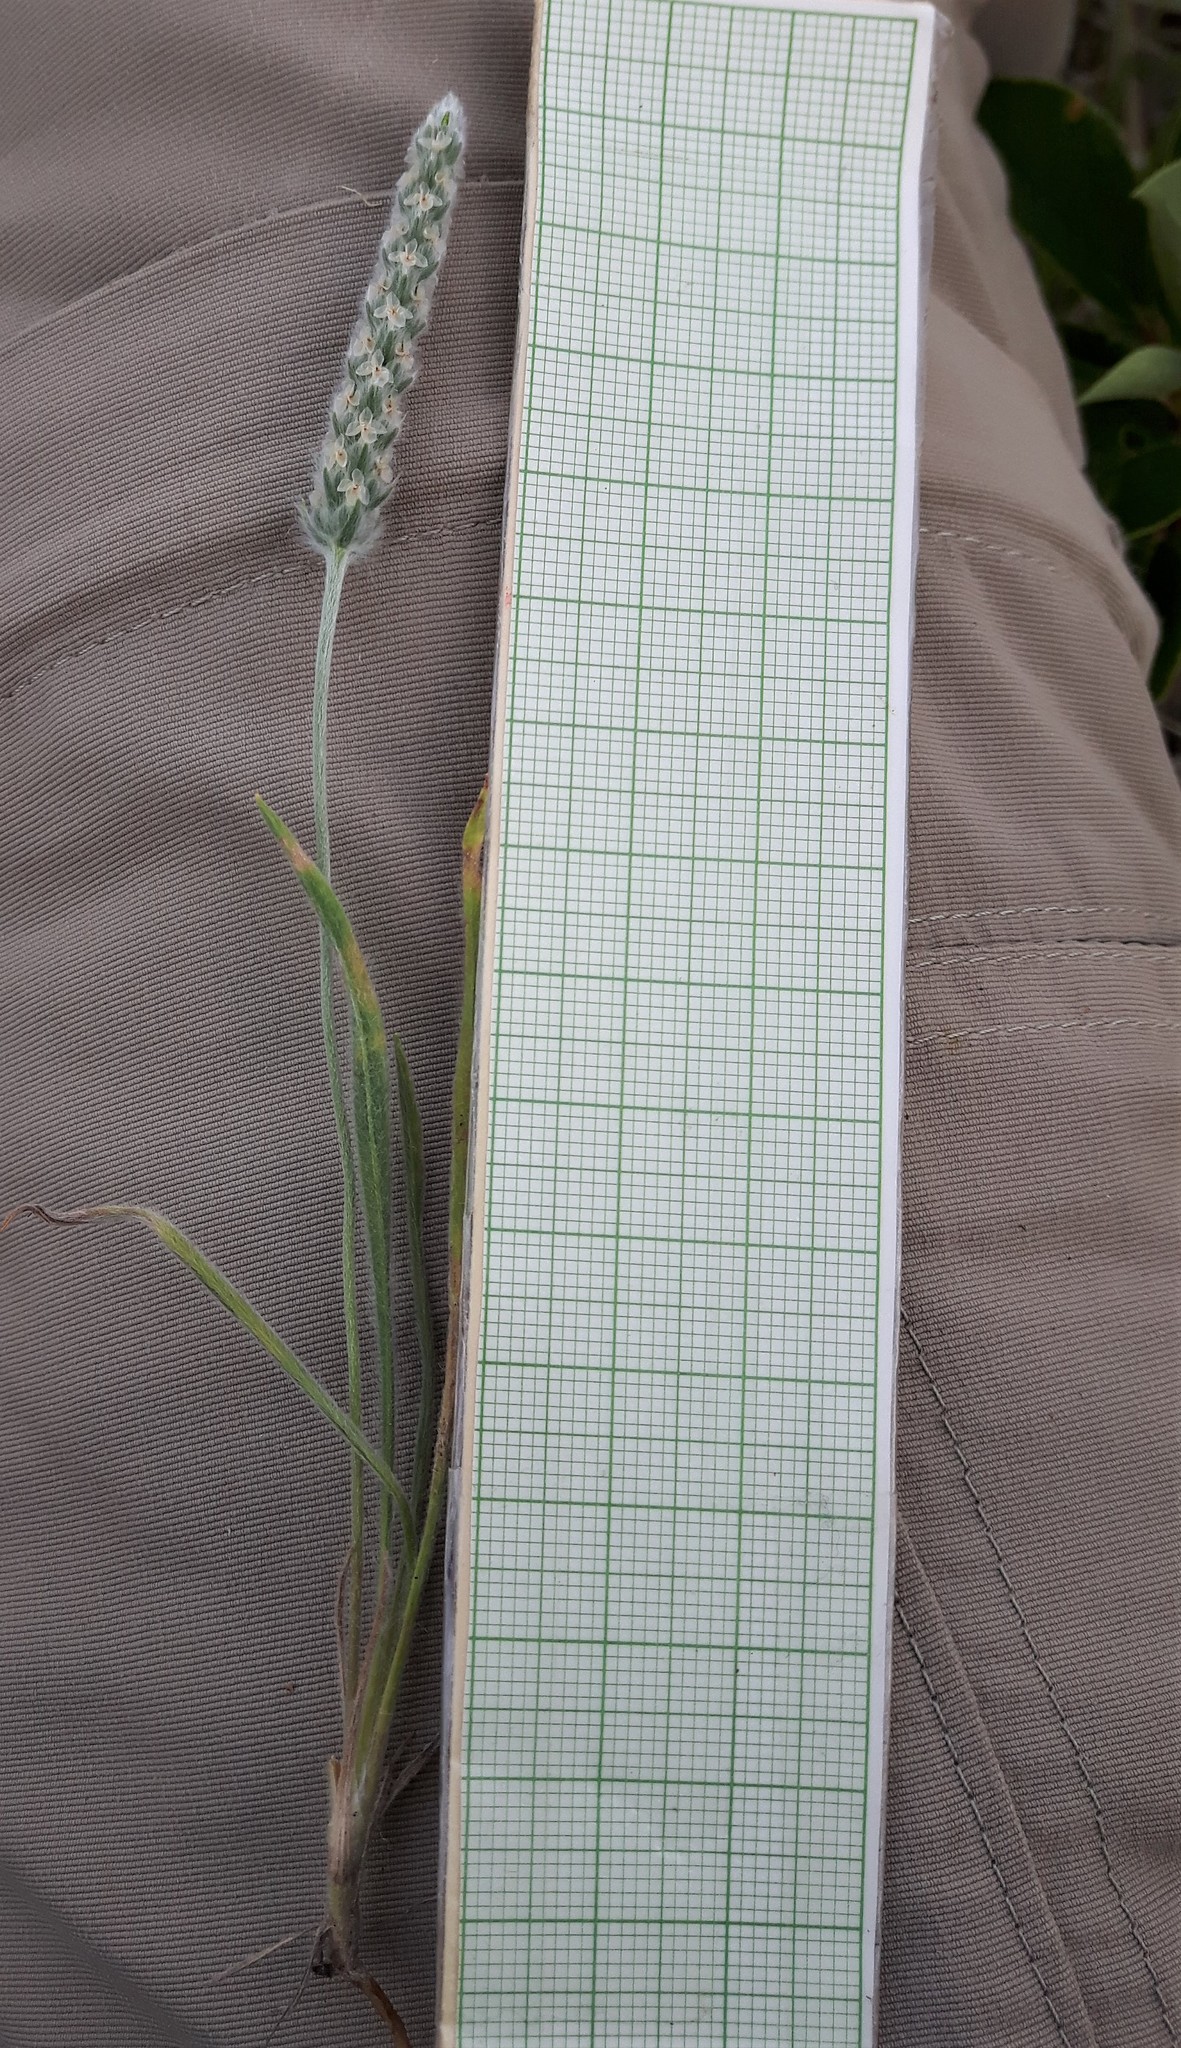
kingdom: Plantae
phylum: Tracheophyta
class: Magnoliopsida
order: Lamiales
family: Plantaginaceae
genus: Plantago
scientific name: Plantago patagonica
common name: Patagonia indian-wheat
